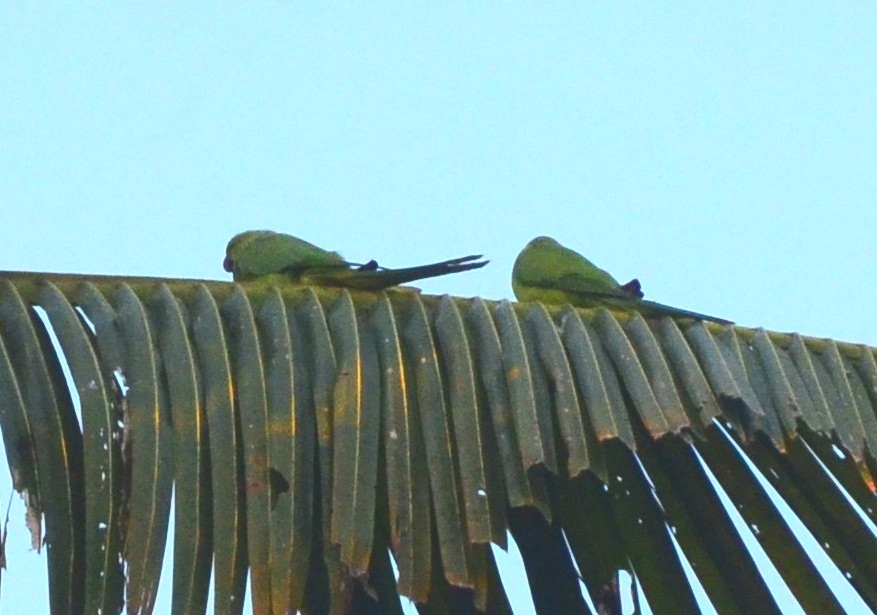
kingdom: Animalia
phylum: Chordata
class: Aves
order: Psittaciformes
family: Psittacidae
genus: Psittacula
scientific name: Psittacula krameri
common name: Rose-ringed parakeet
